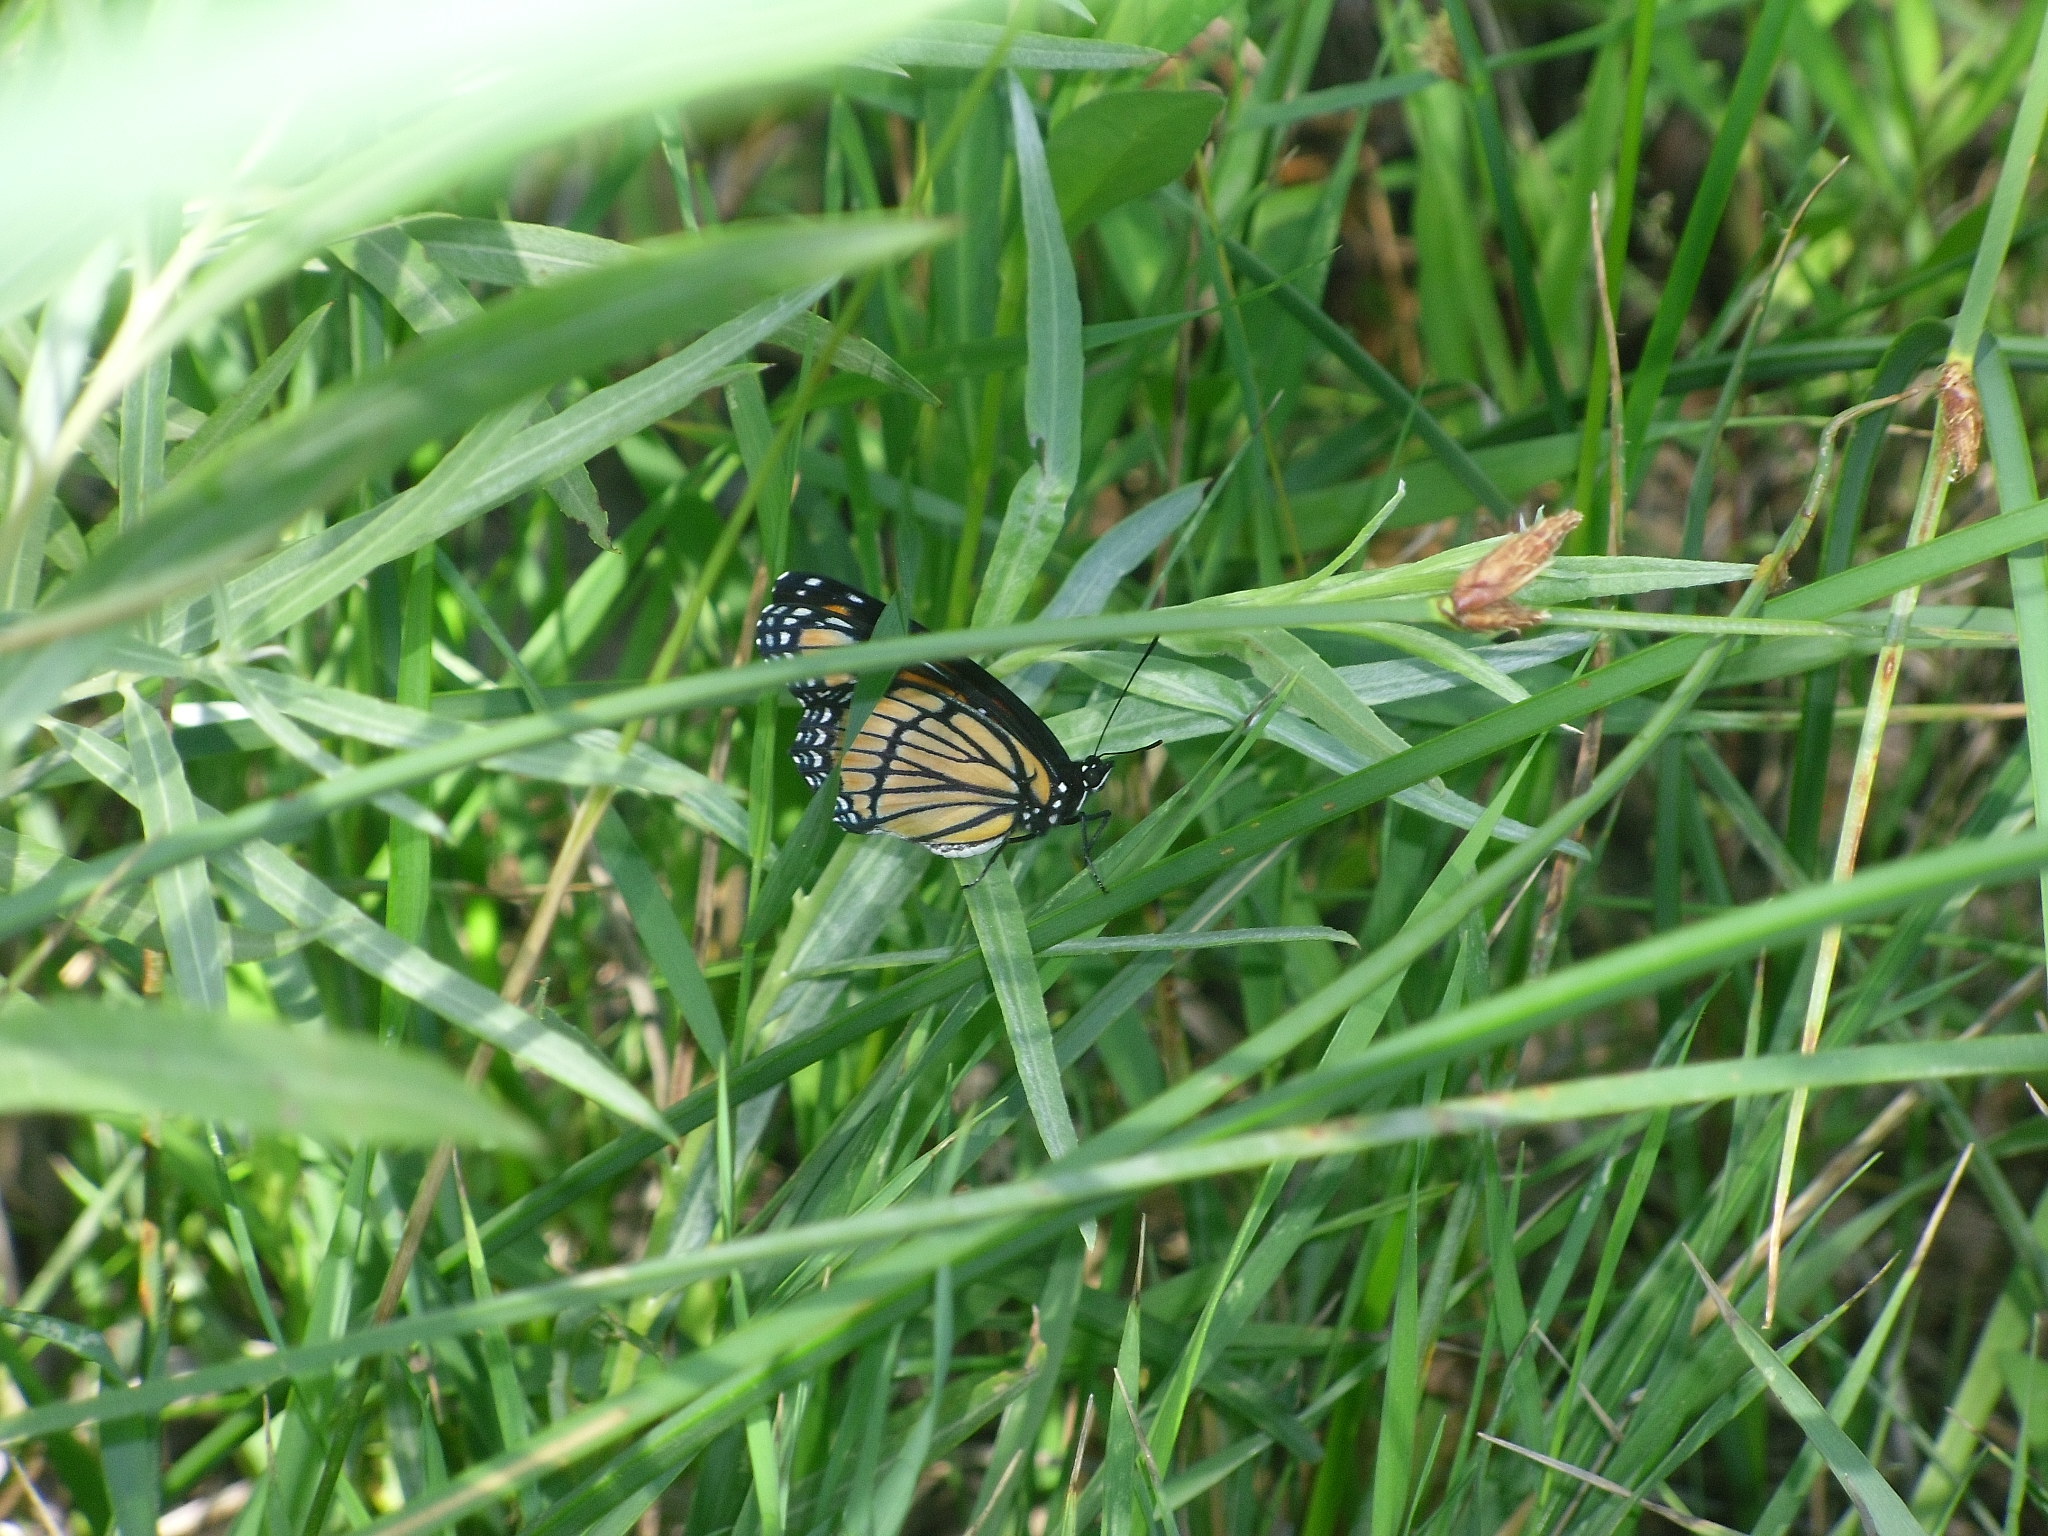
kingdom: Animalia
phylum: Arthropoda
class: Insecta
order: Lepidoptera
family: Nymphalidae
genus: Limenitis
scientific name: Limenitis archippus
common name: Viceroy
